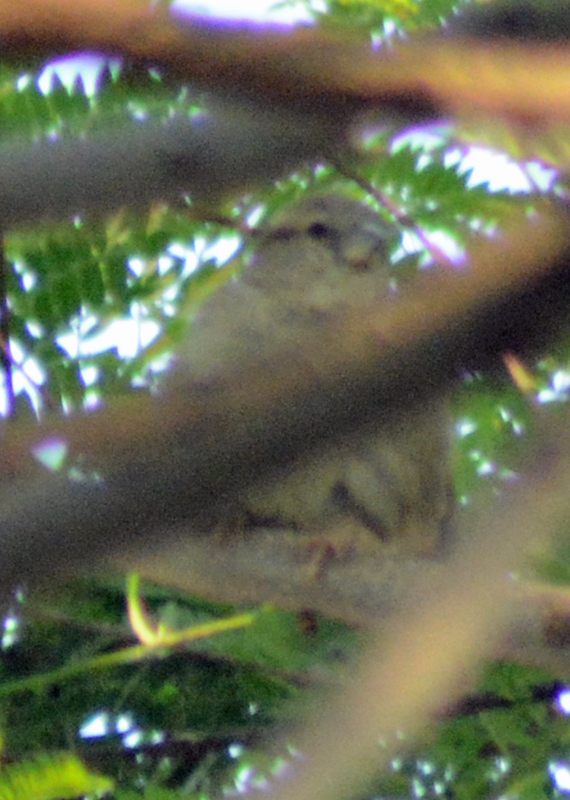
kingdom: Animalia
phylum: Chordata
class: Aves
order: Passeriformes
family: Passeridae
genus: Passer
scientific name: Passer domesticus
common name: House sparrow
